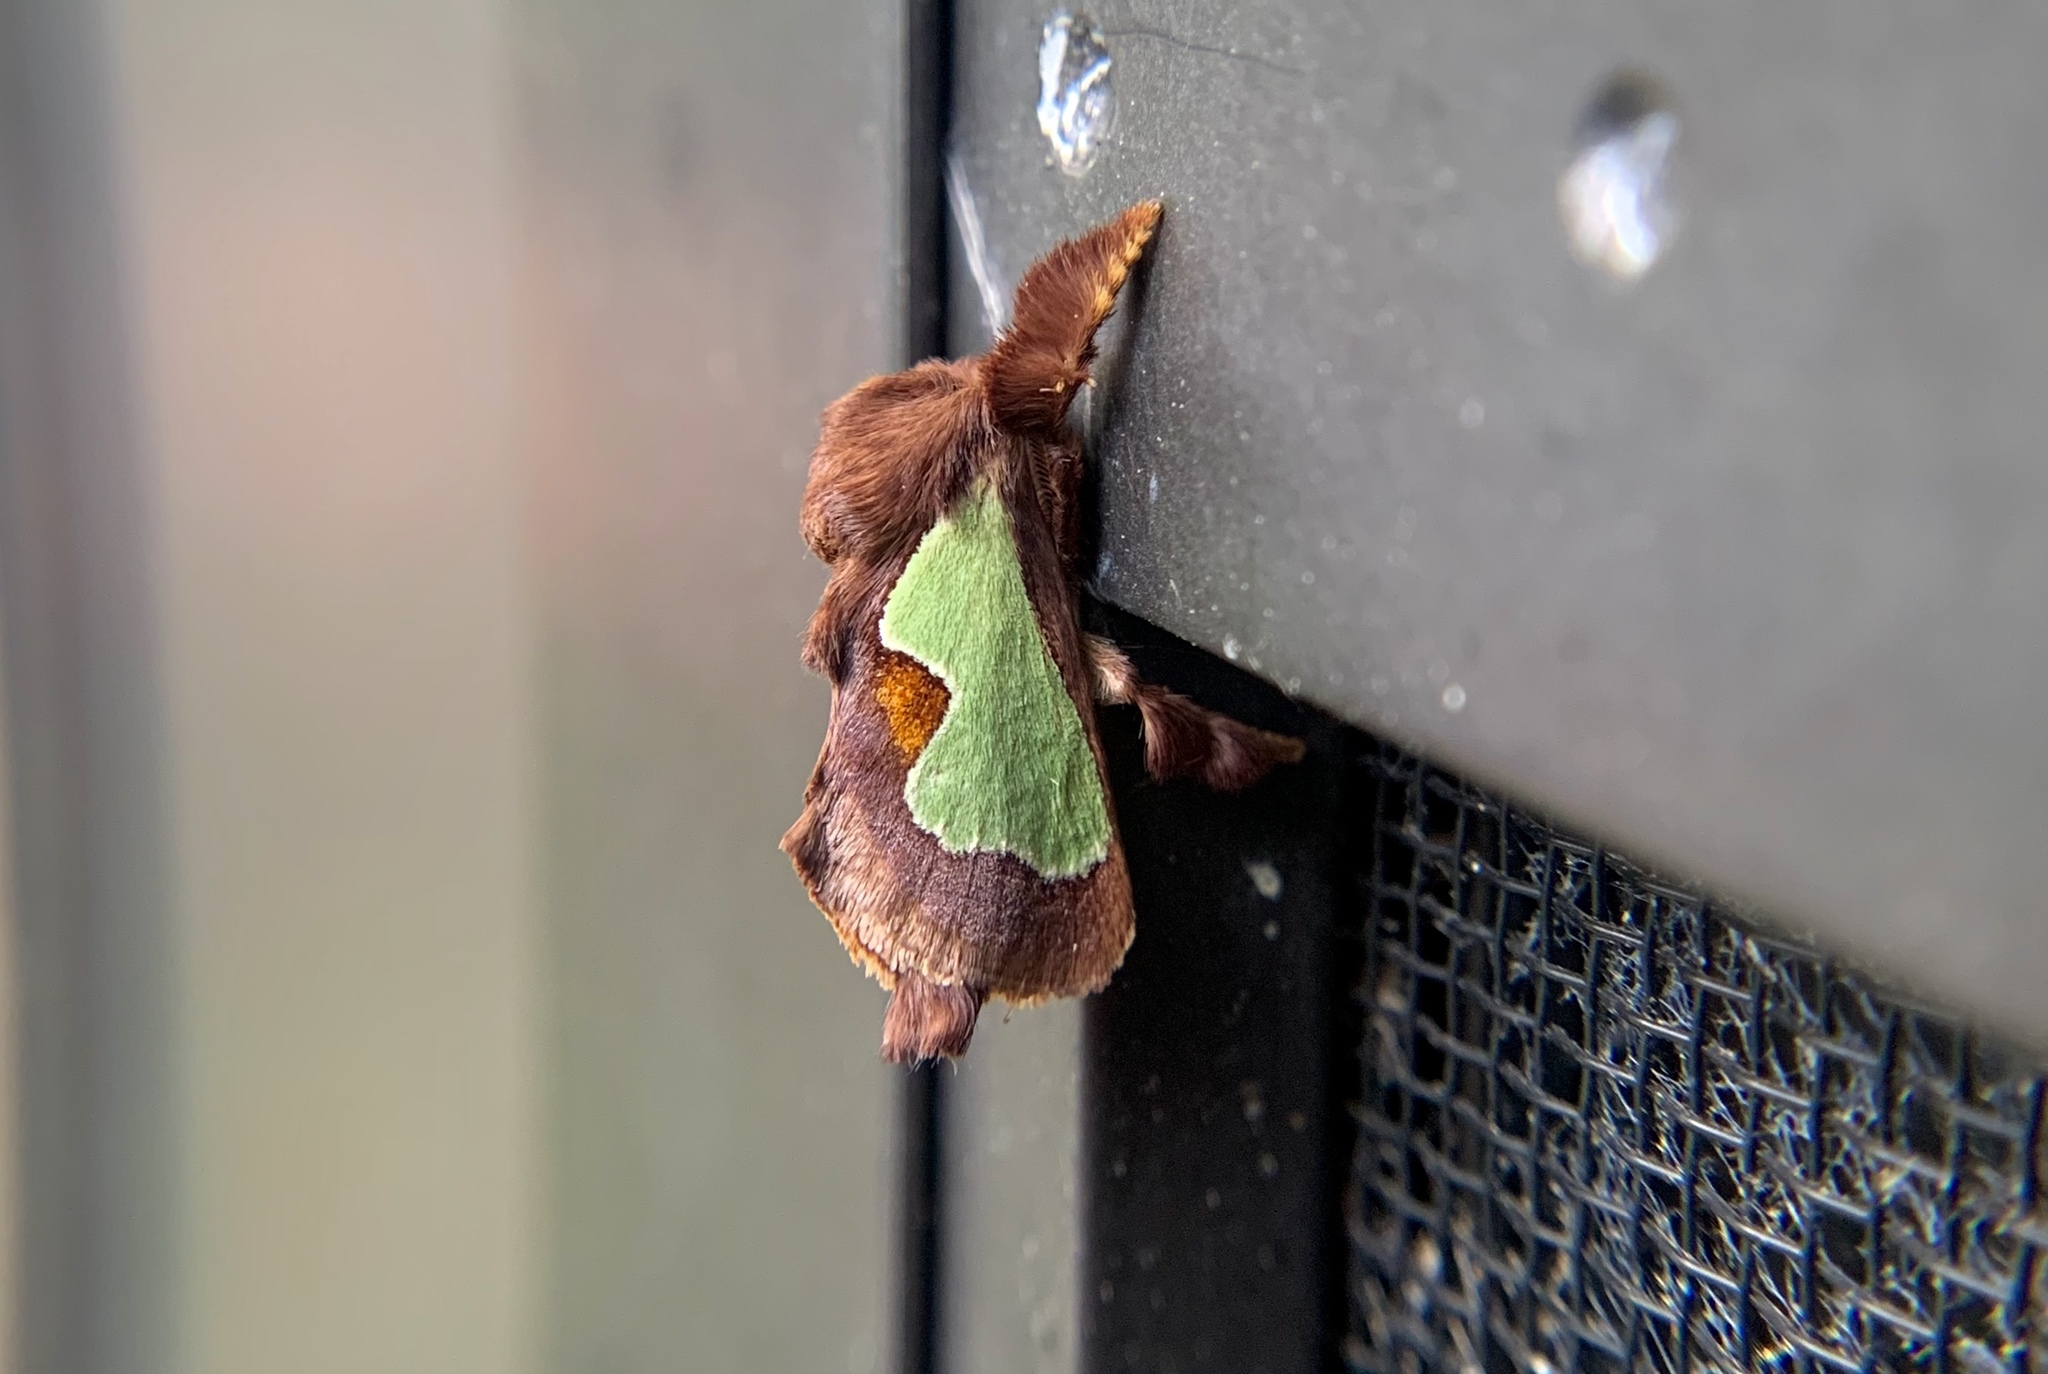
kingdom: Animalia
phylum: Arthropoda
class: Insecta
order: Lepidoptera
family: Limacodidae
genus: Euclea
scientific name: Euclea delphinii
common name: Spiny oak-slug moth
